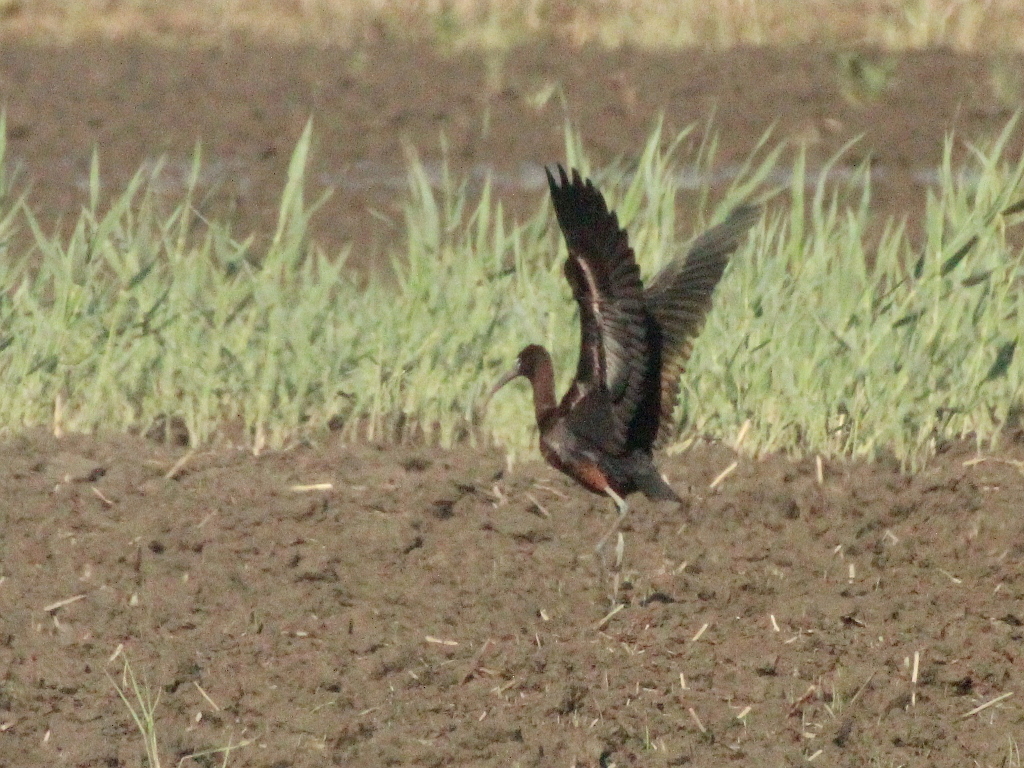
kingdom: Animalia
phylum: Chordata
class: Aves
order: Pelecaniformes
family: Threskiornithidae
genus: Plegadis
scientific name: Plegadis falcinellus
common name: Glossy ibis
